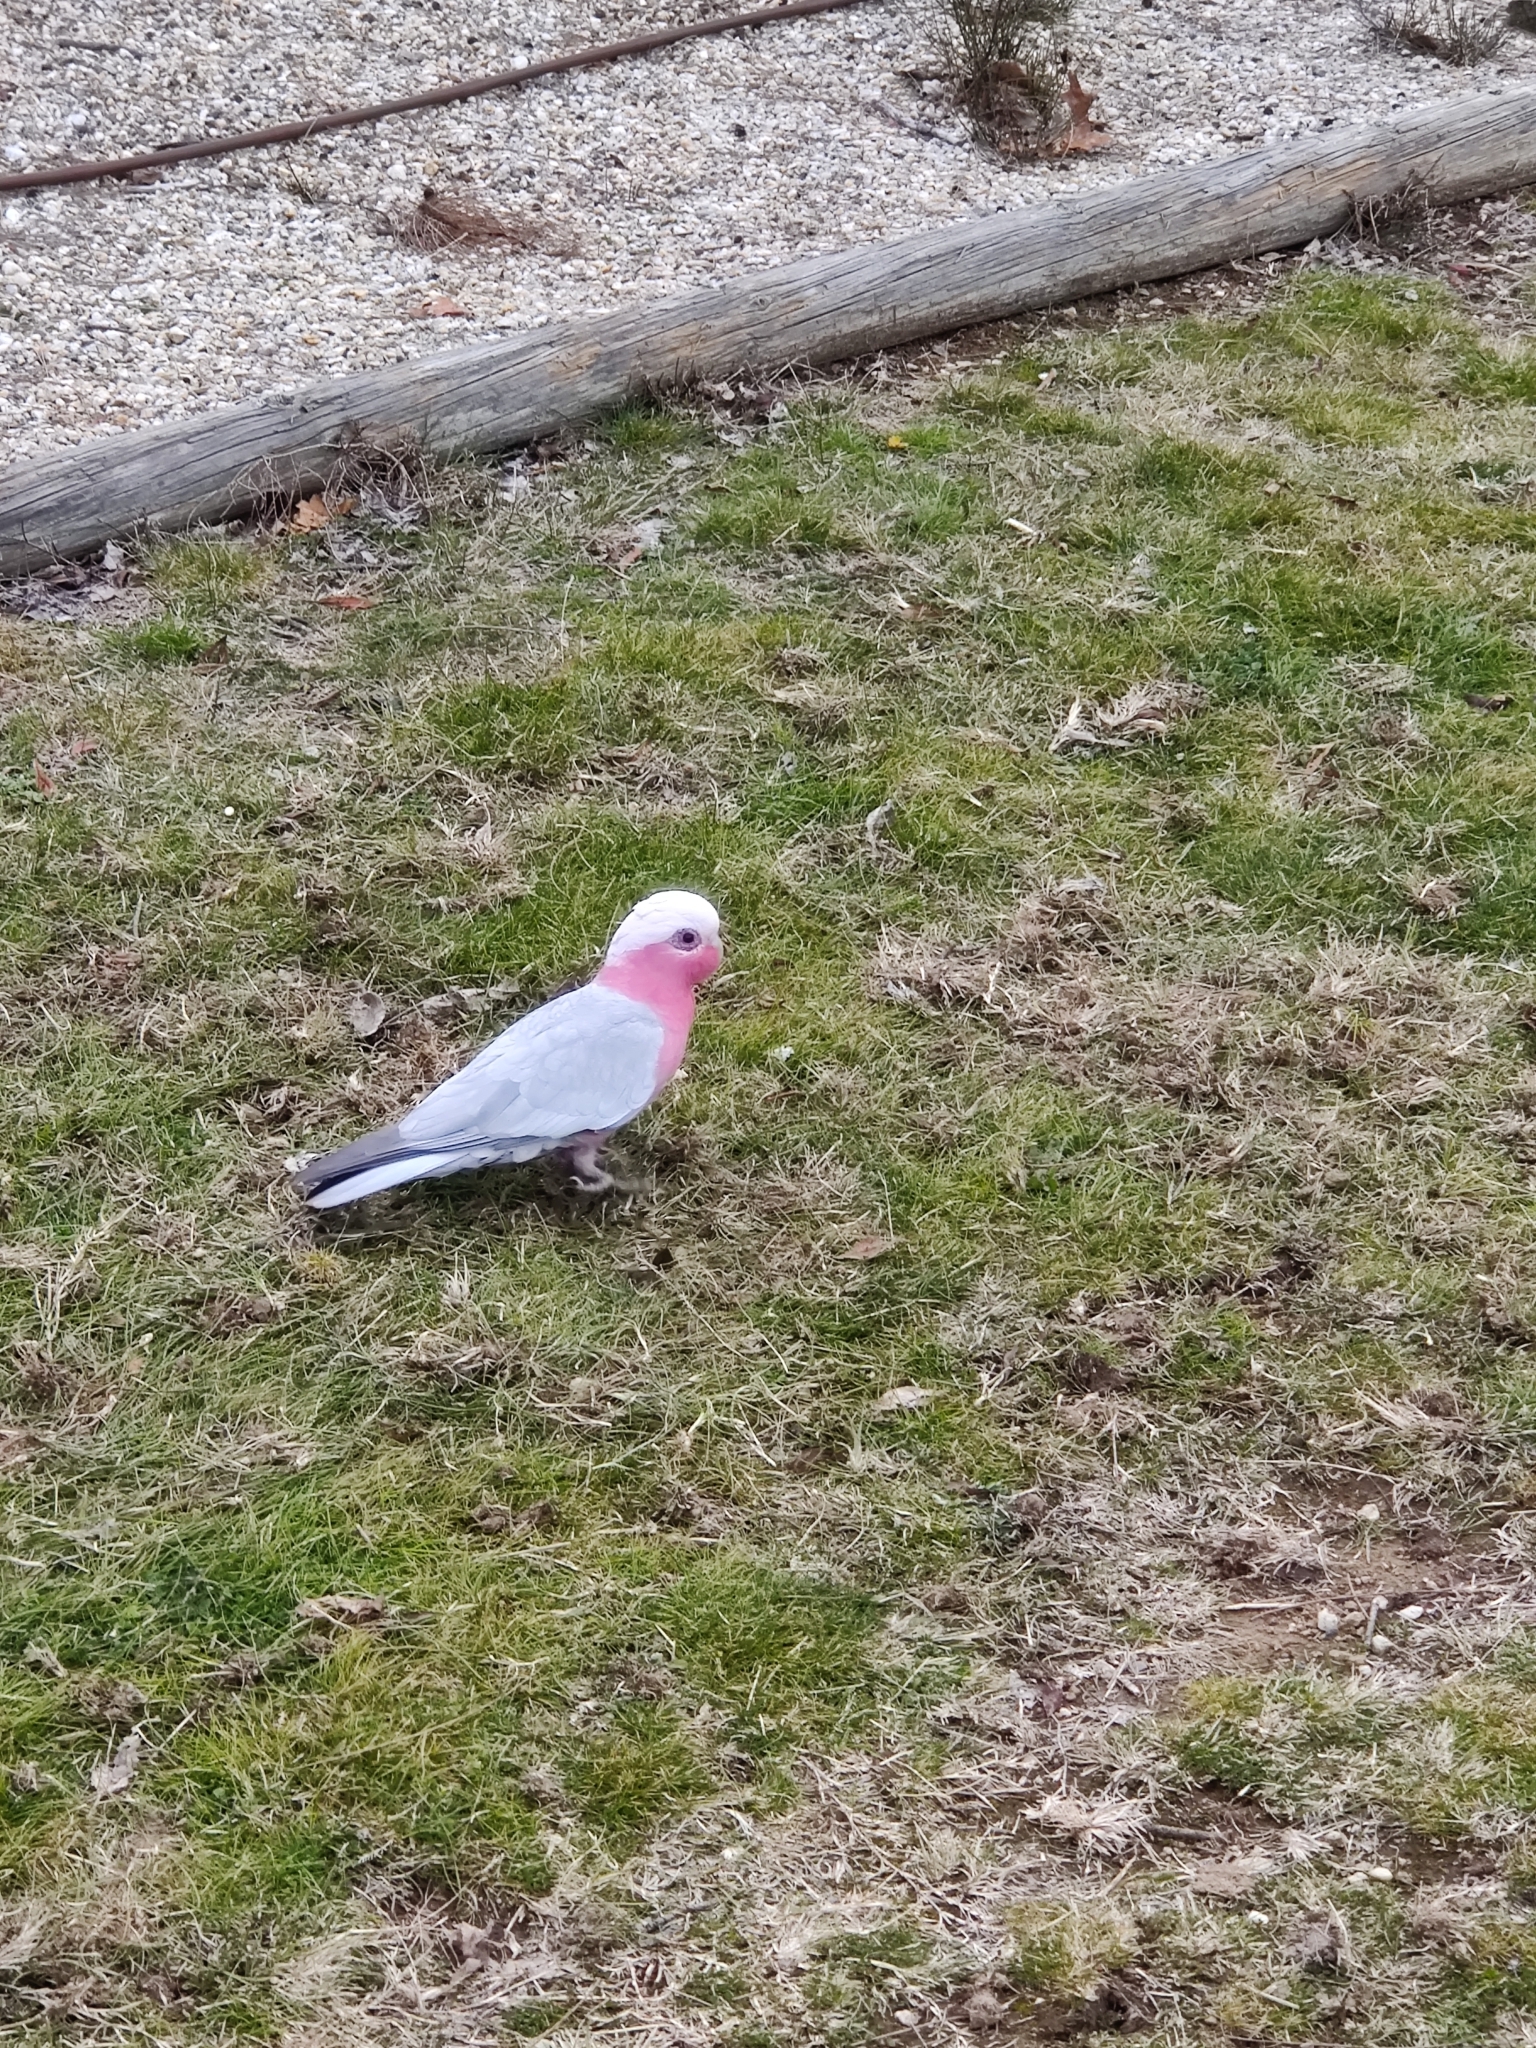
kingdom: Animalia
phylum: Chordata
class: Aves
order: Psittaciformes
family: Psittacidae
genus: Eolophus
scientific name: Eolophus roseicapilla
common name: Galah
